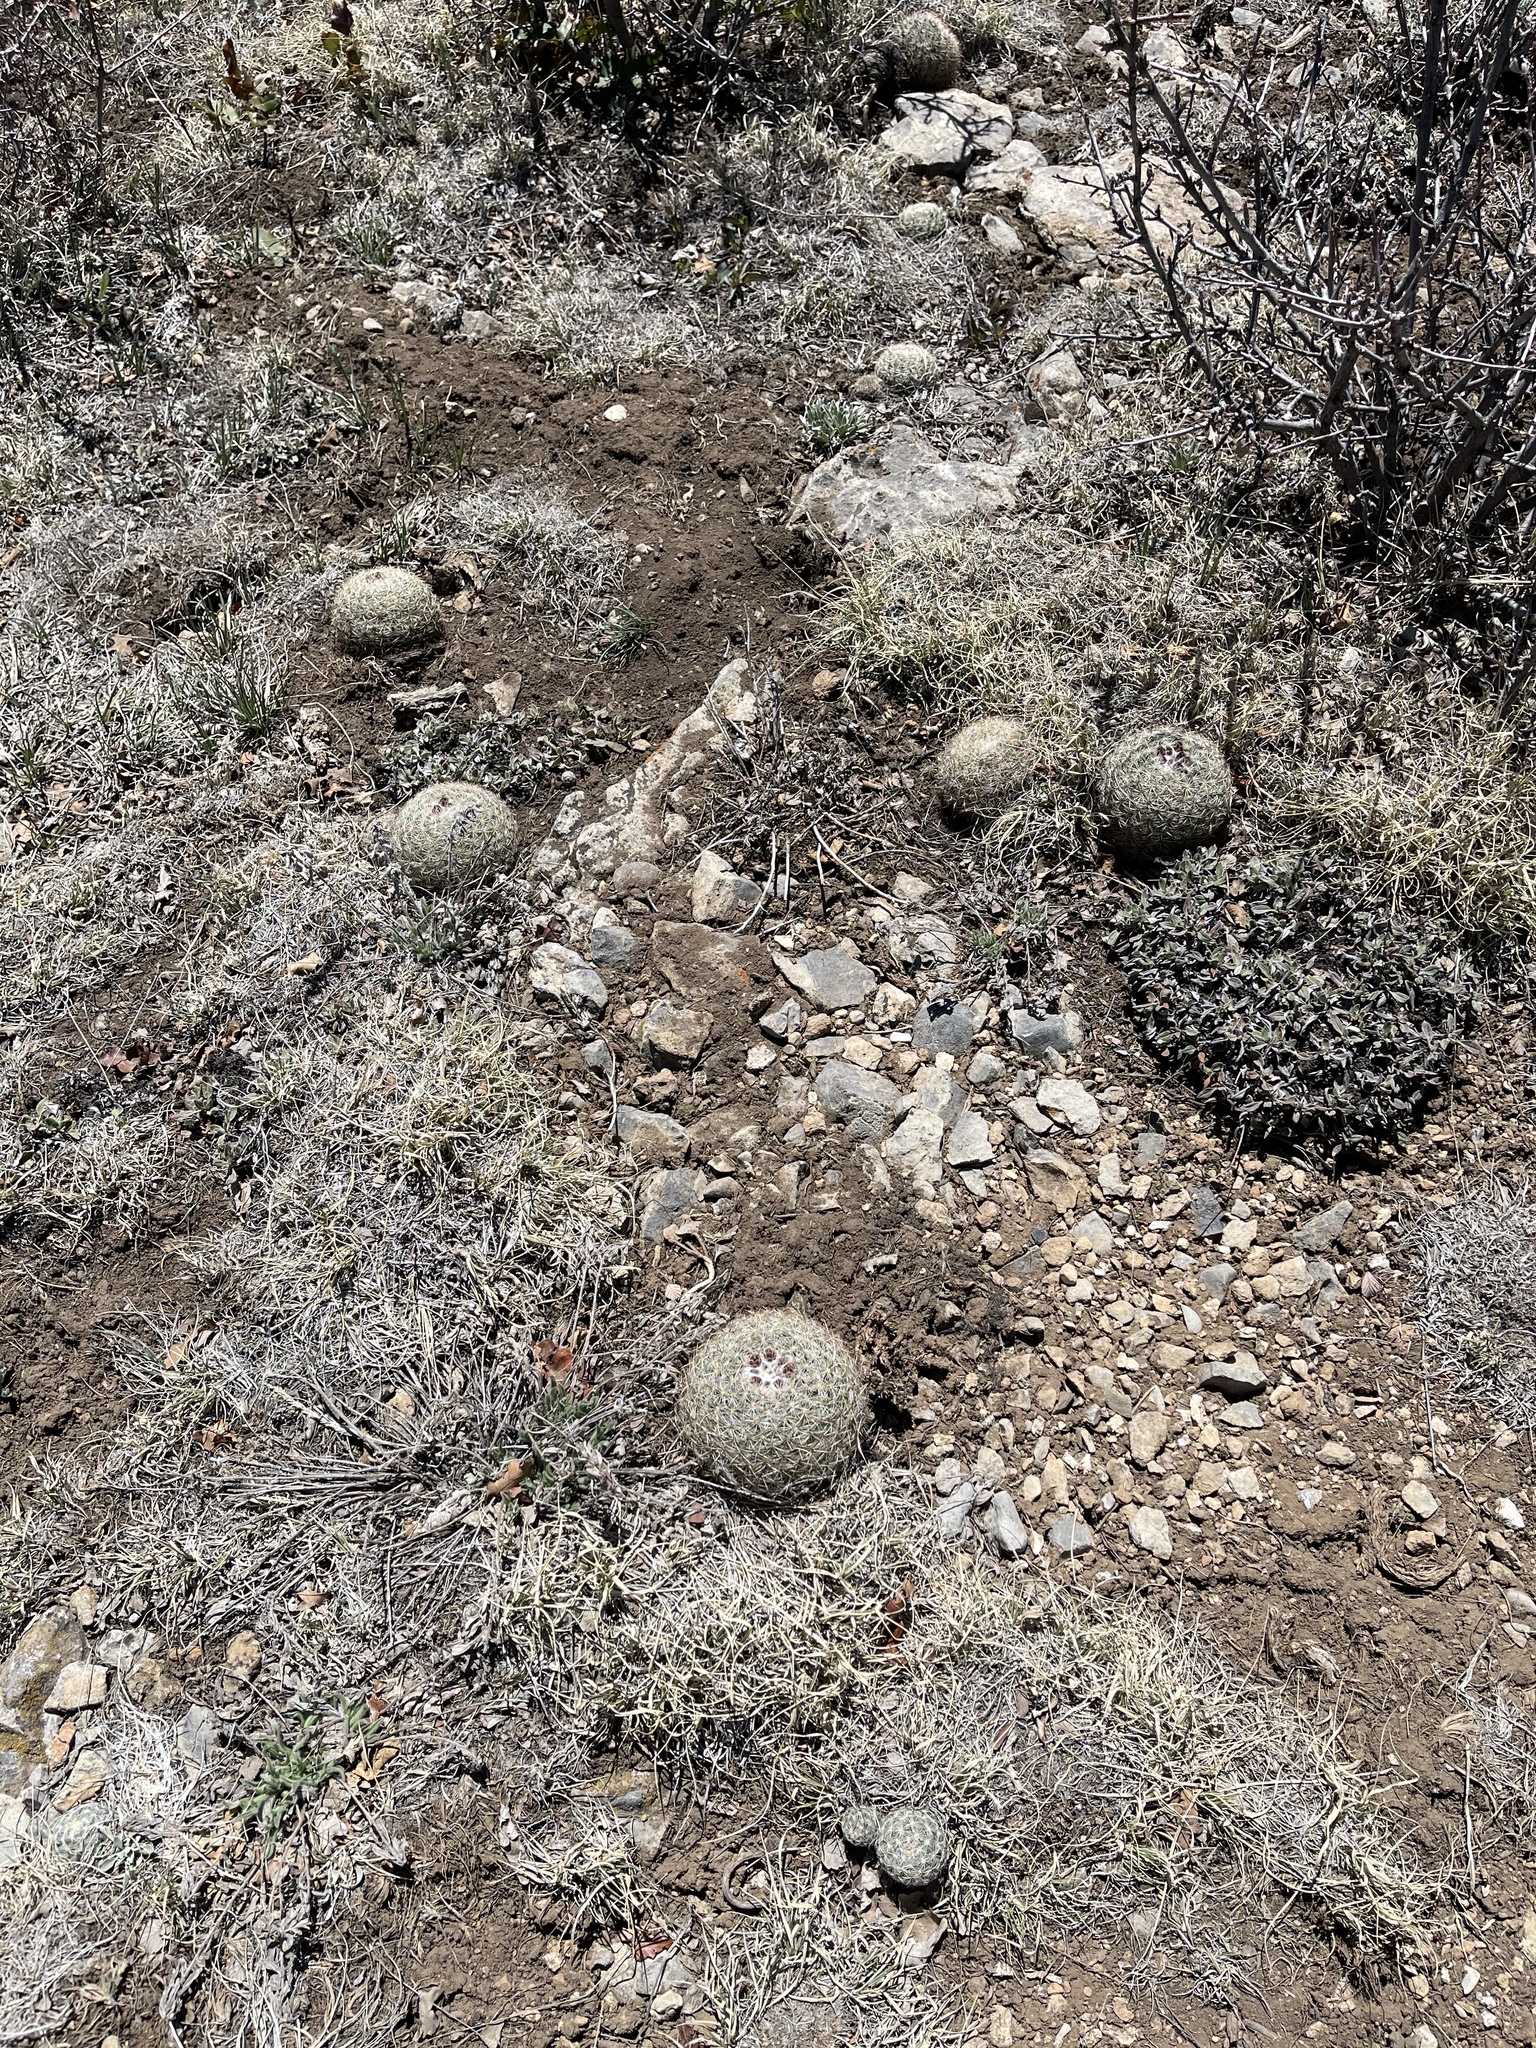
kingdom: Plantae
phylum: Tracheophyta
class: Magnoliopsida
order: Caryophyllales
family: Cactaceae
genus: Pediocactus
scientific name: Pediocactus simpsonii
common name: Simpson's hedgehog cactus
